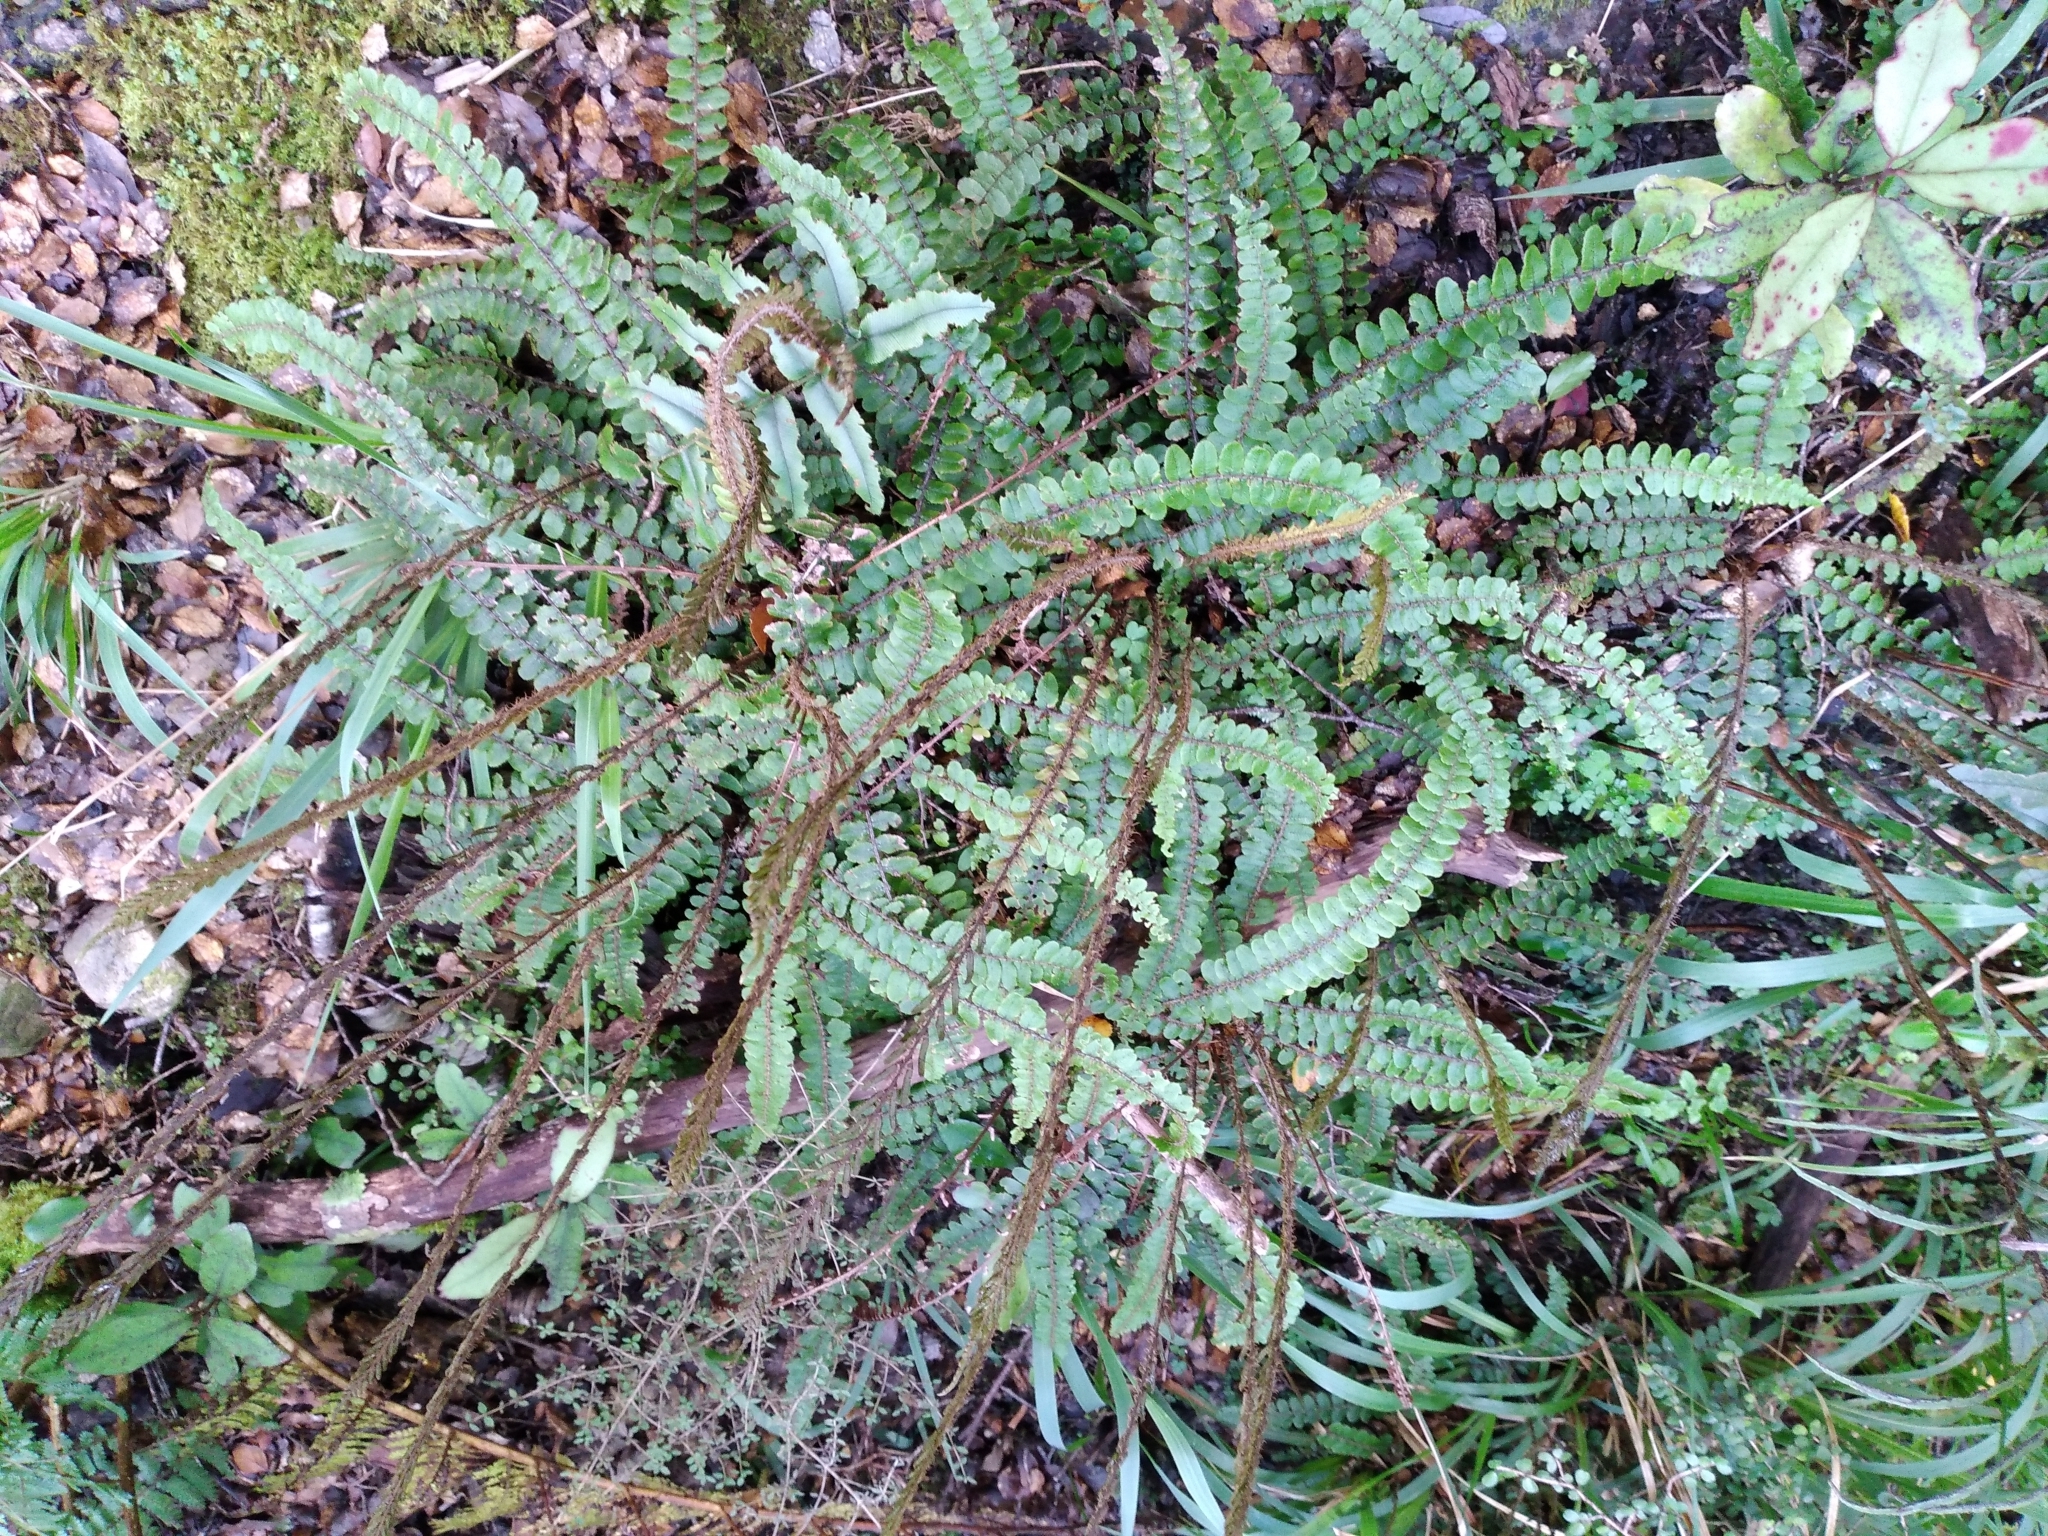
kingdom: Plantae
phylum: Tracheophyta
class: Polypodiopsida
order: Polypodiales
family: Blechnaceae
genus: Cranfillia
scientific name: Cranfillia fluviatilis
